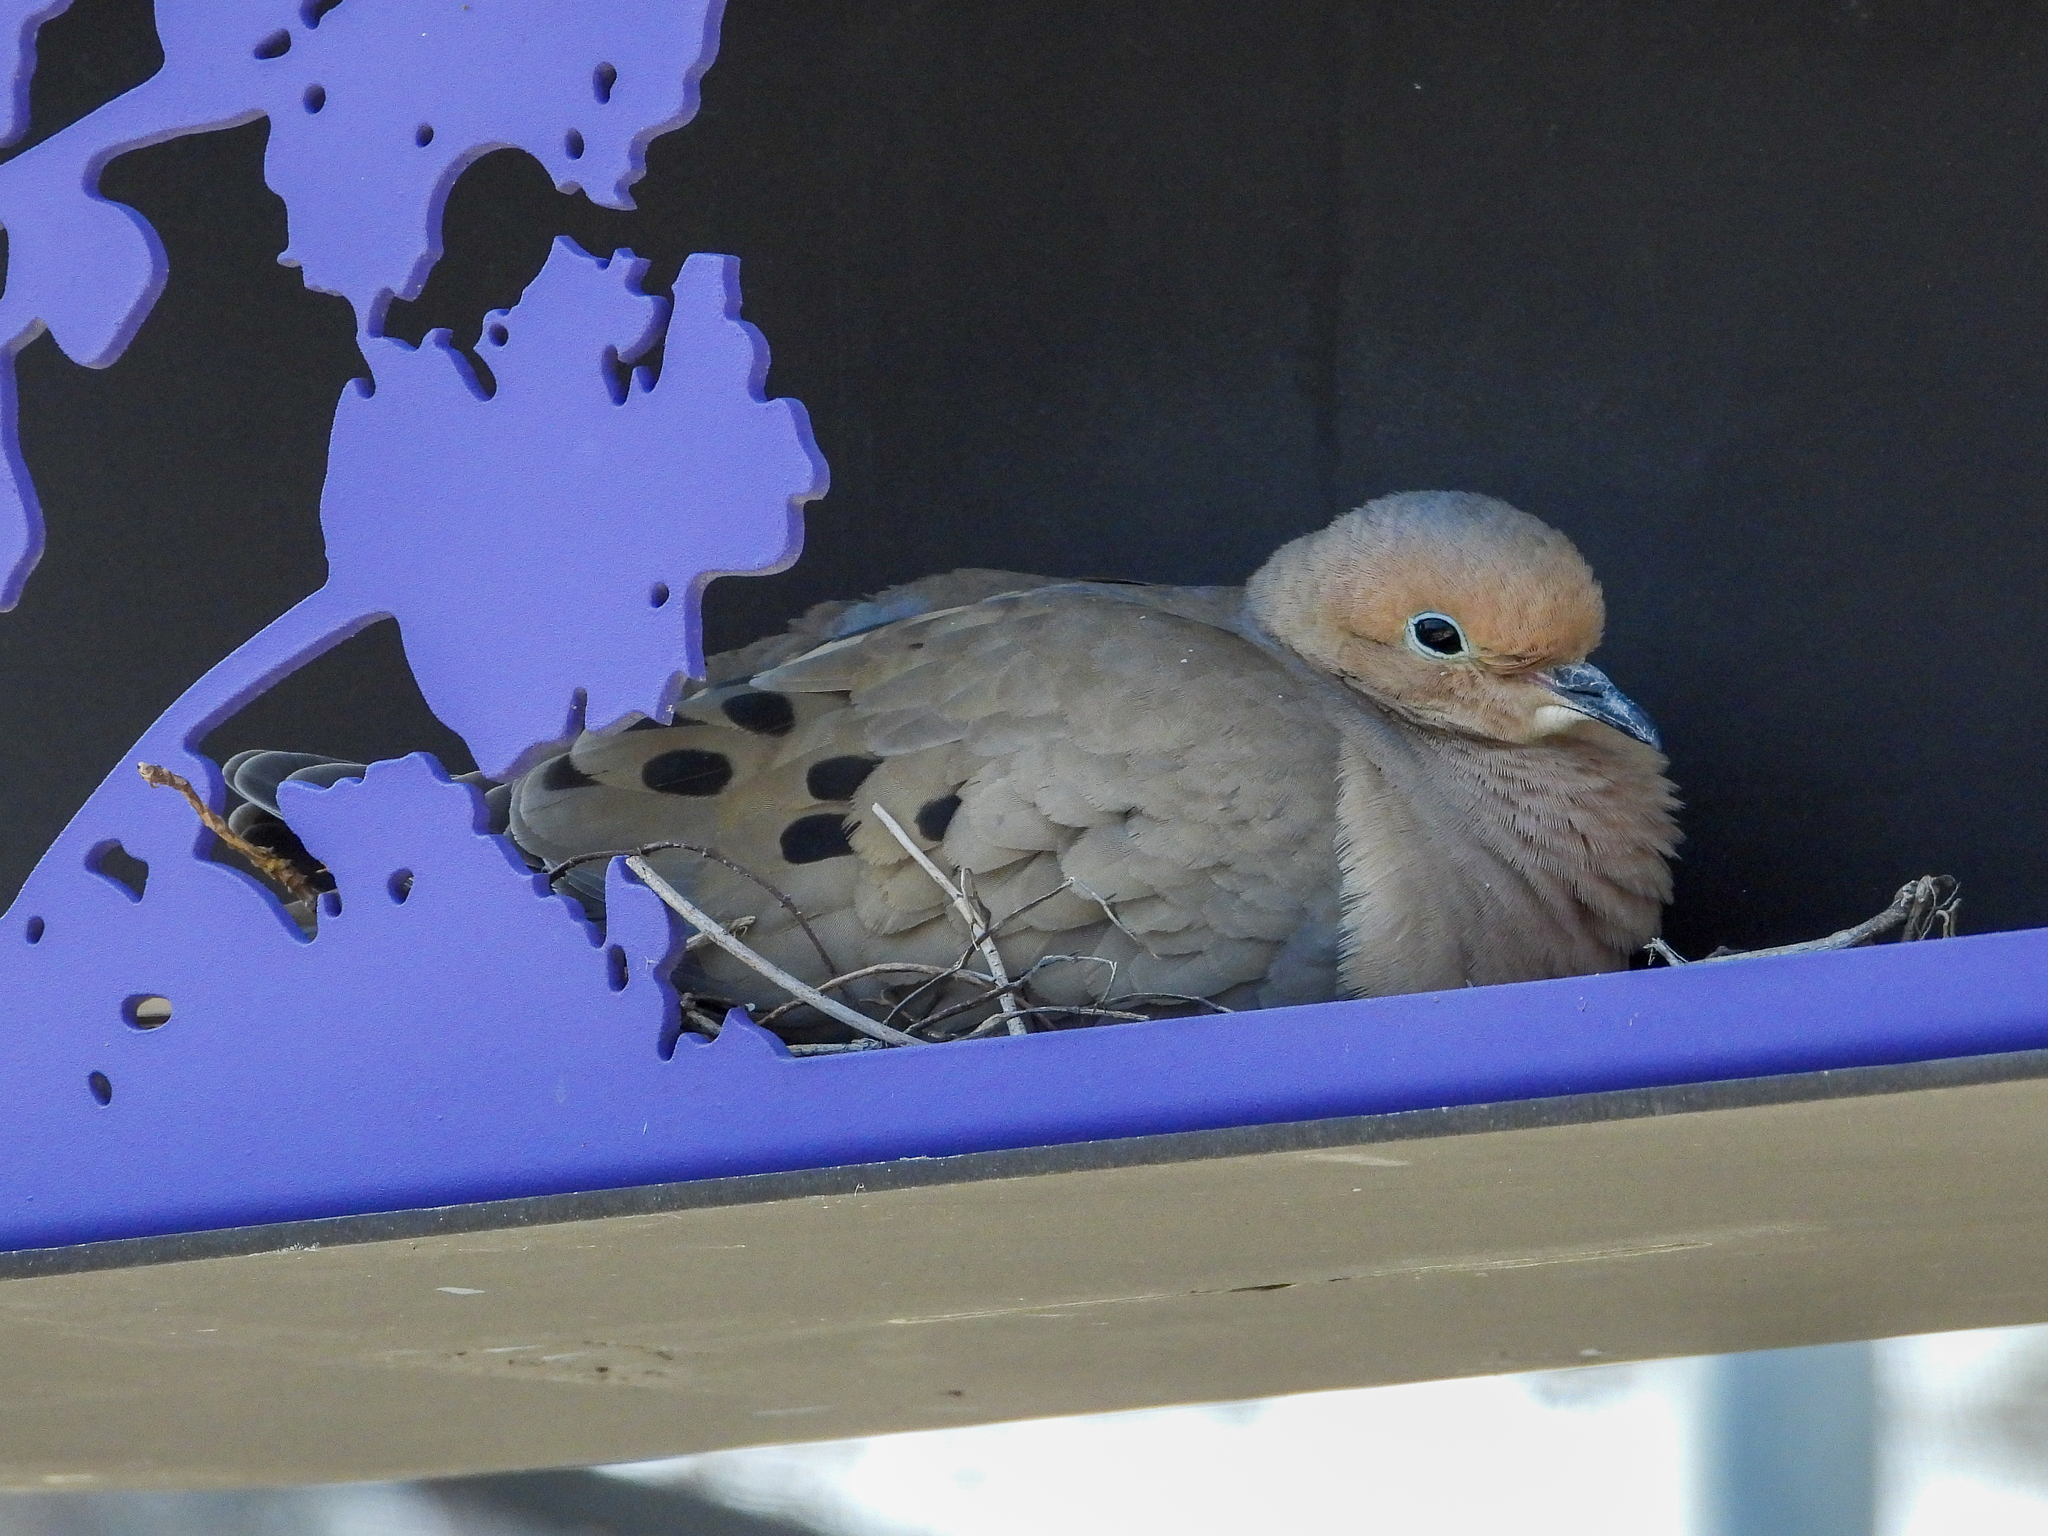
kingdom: Animalia
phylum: Chordata
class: Aves
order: Columbiformes
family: Columbidae
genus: Zenaida
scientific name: Zenaida macroura
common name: Mourning dove
